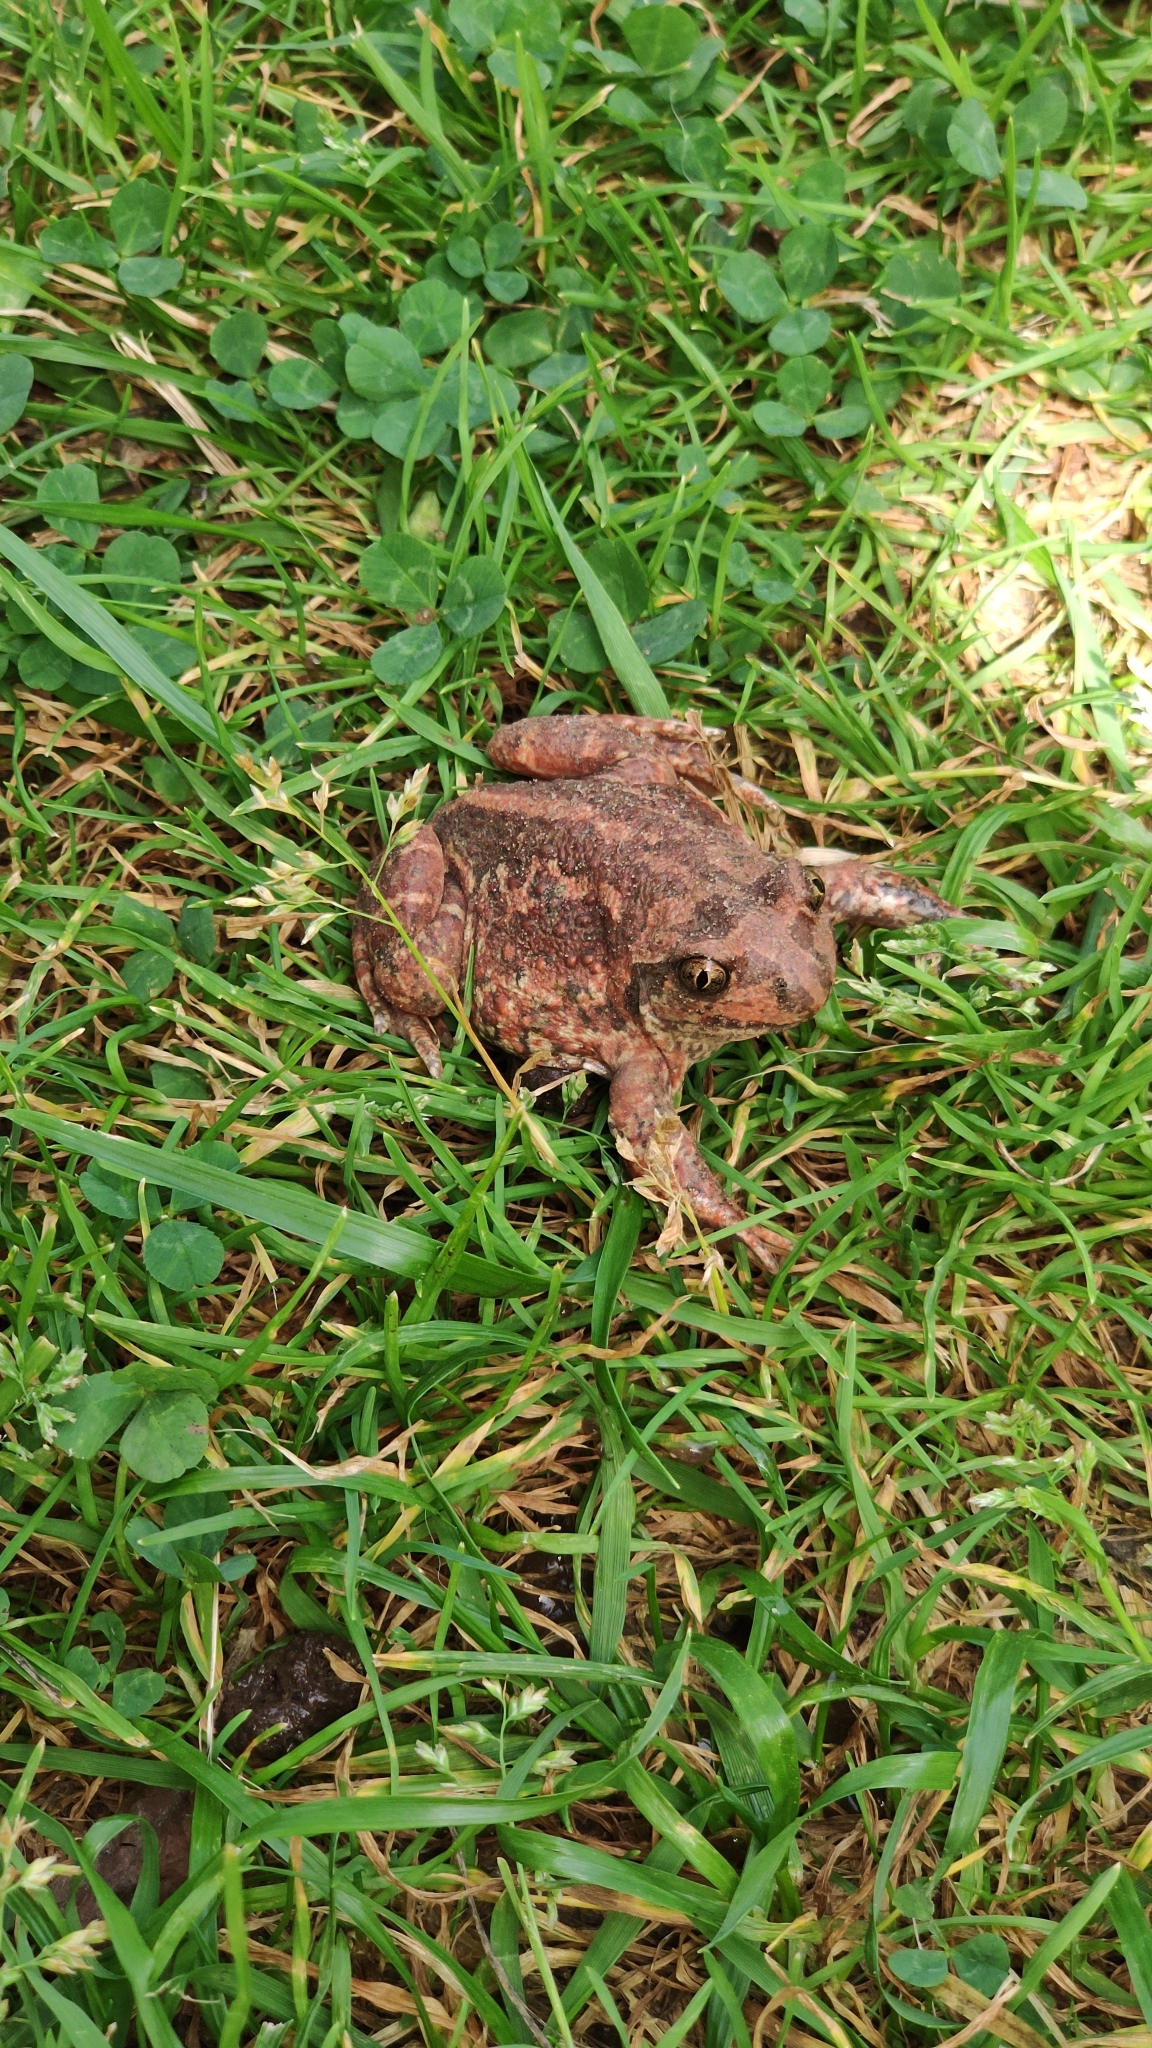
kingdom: Animalia
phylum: Chordata
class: Amphibia
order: Anura
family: Pelobatidae
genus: Pelobates
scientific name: Pelobates vespertinus
